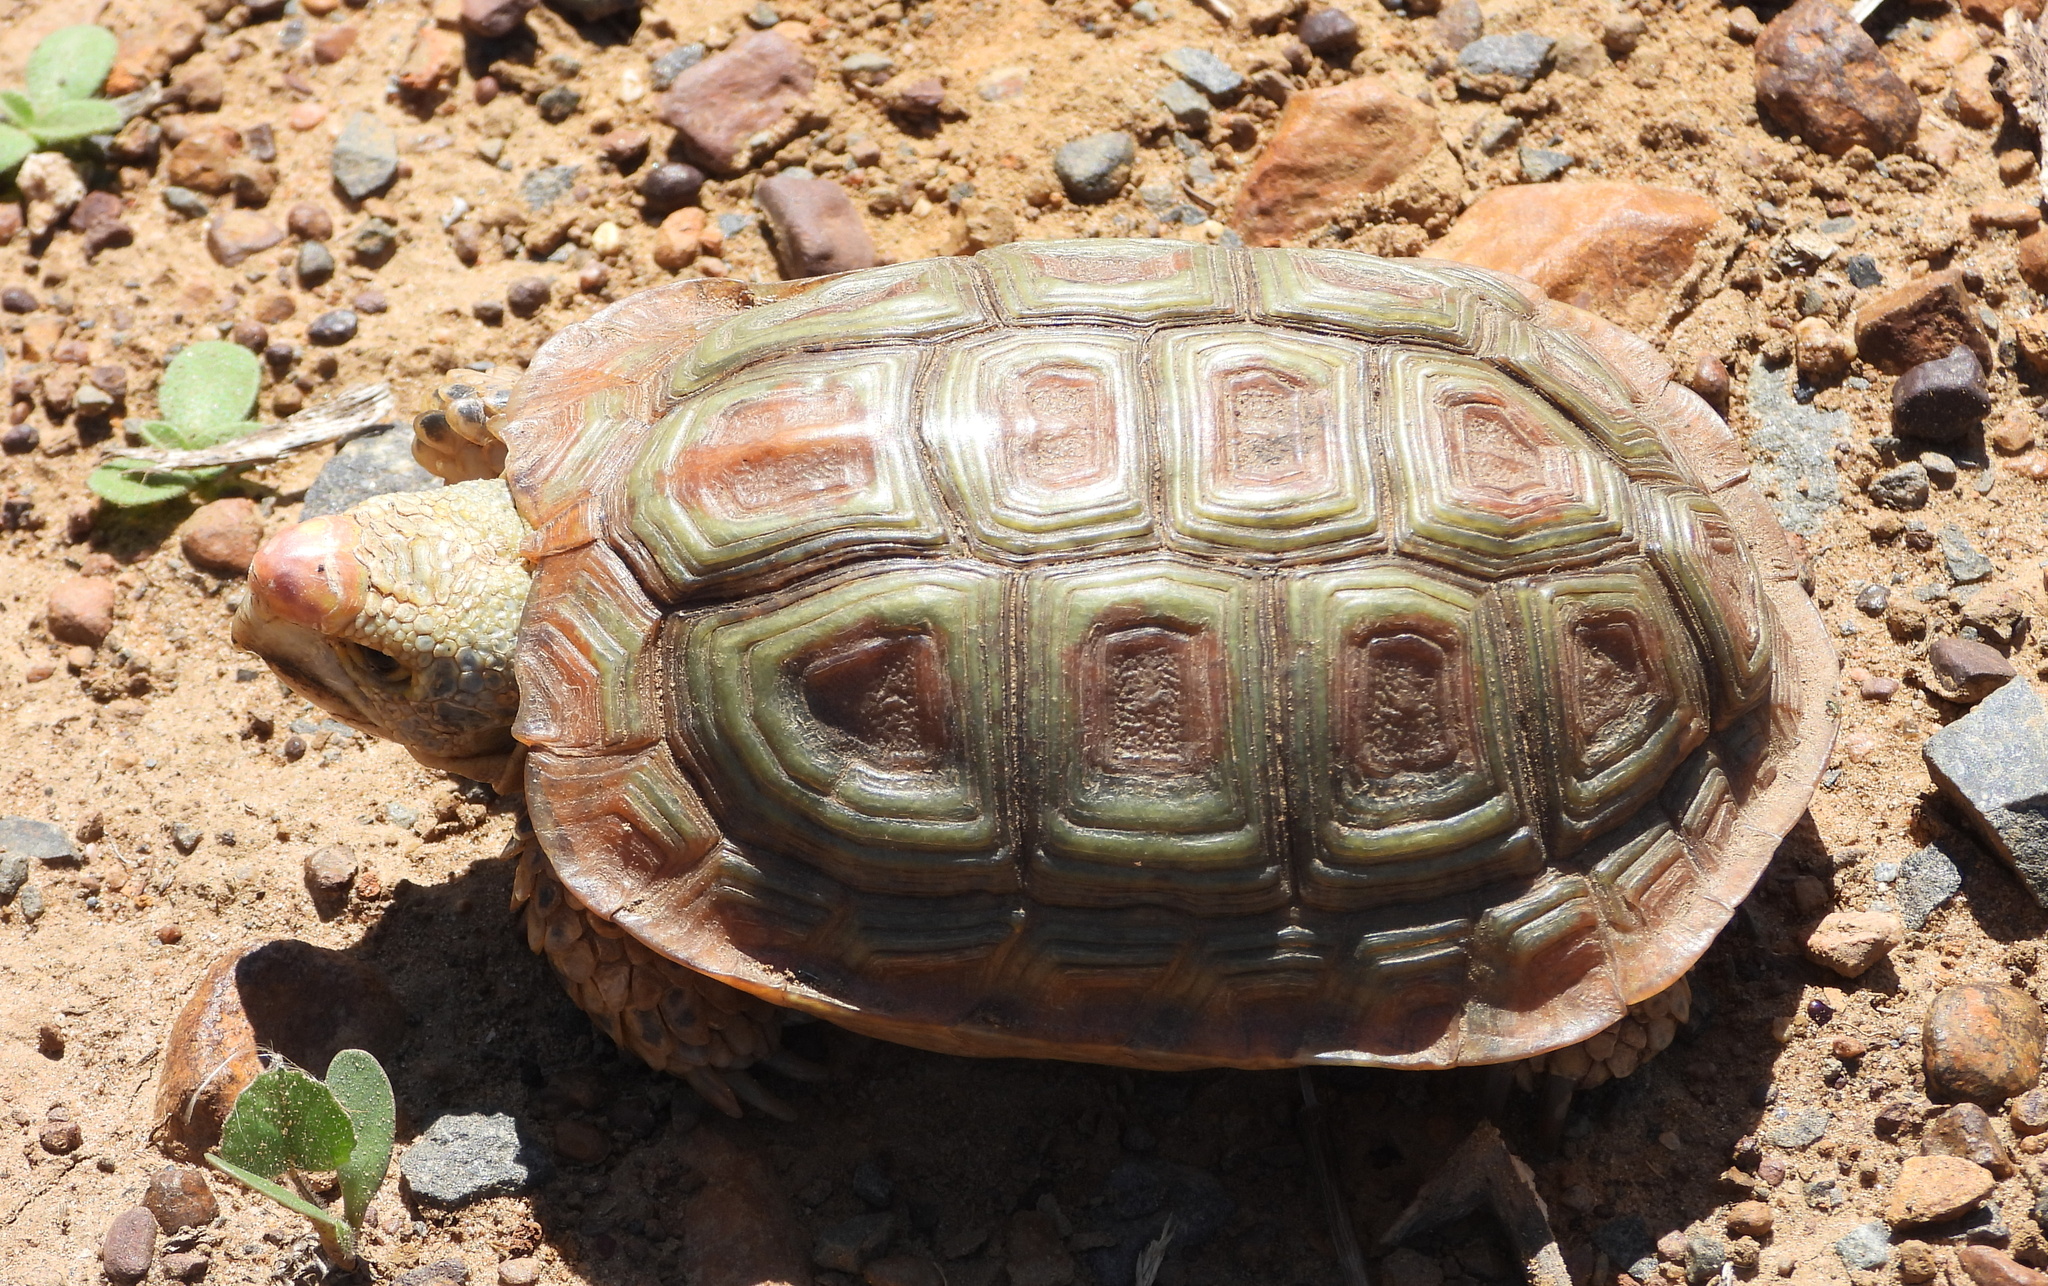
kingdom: Animalia
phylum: Chordata
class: Testudines
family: Testudinidae
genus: Homopus
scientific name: Homopus areolatus
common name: Parrot-beaked tortoise
